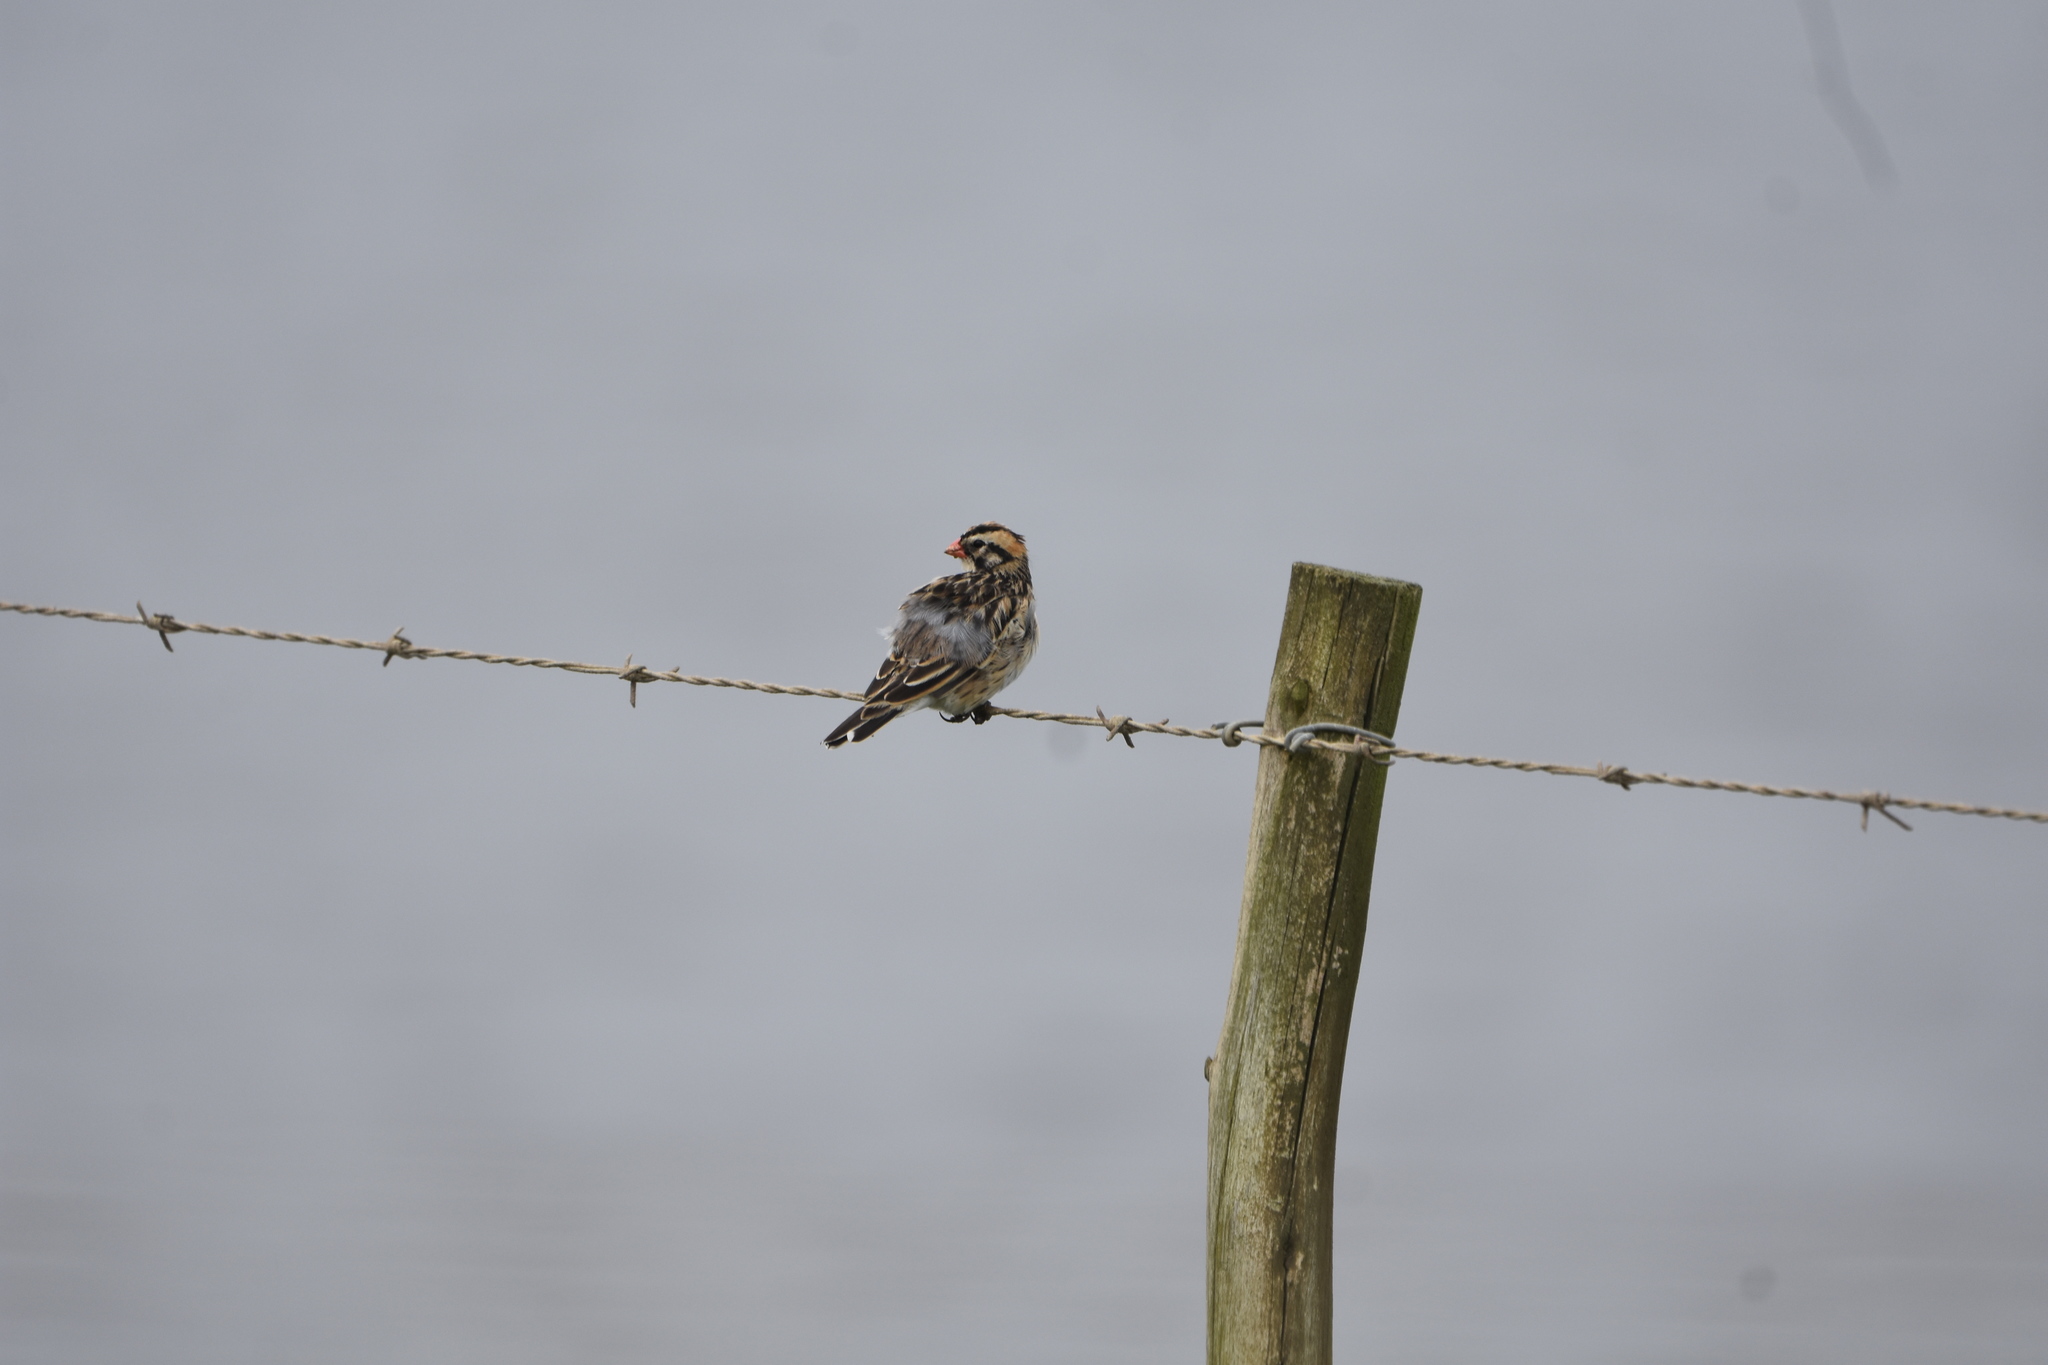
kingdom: Animalia
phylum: Chordata
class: Aves
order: Passeriformes
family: Viduidae
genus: Vidua
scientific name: Vidua macroura
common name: Pin-tailed whydah
